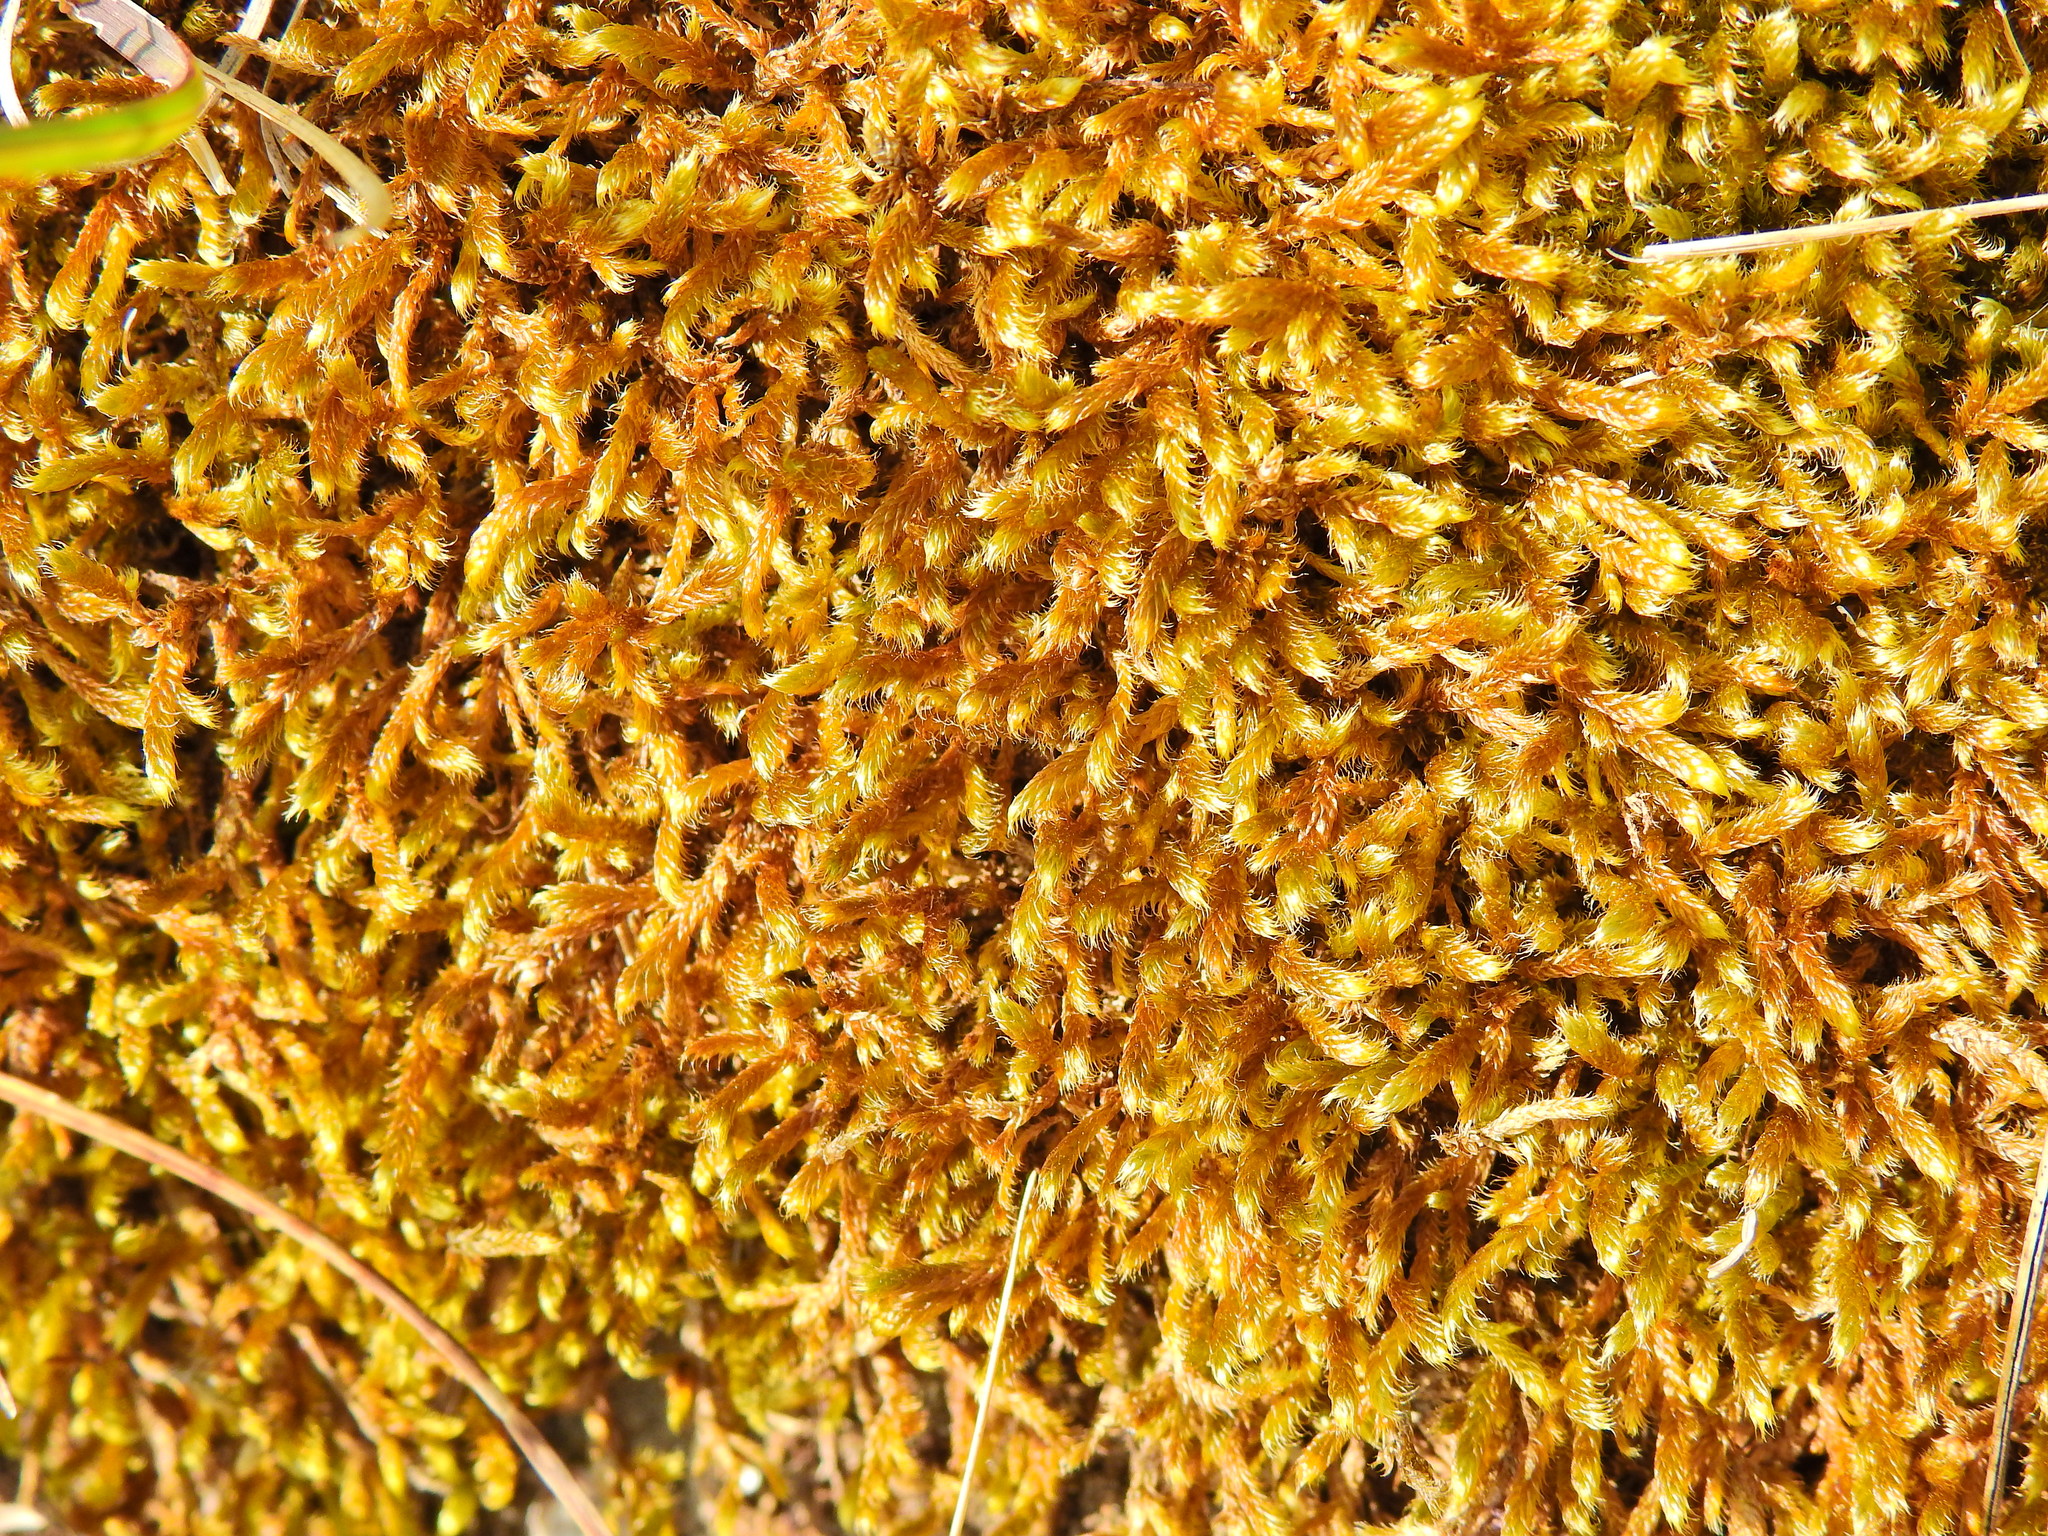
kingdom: Plantae
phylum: Bryophyta
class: Bryopsida
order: Hypnales
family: Hypnaceae
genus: Hypnum
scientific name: Hypnum cupressiforme
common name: Cypress-leaved plait-moss
